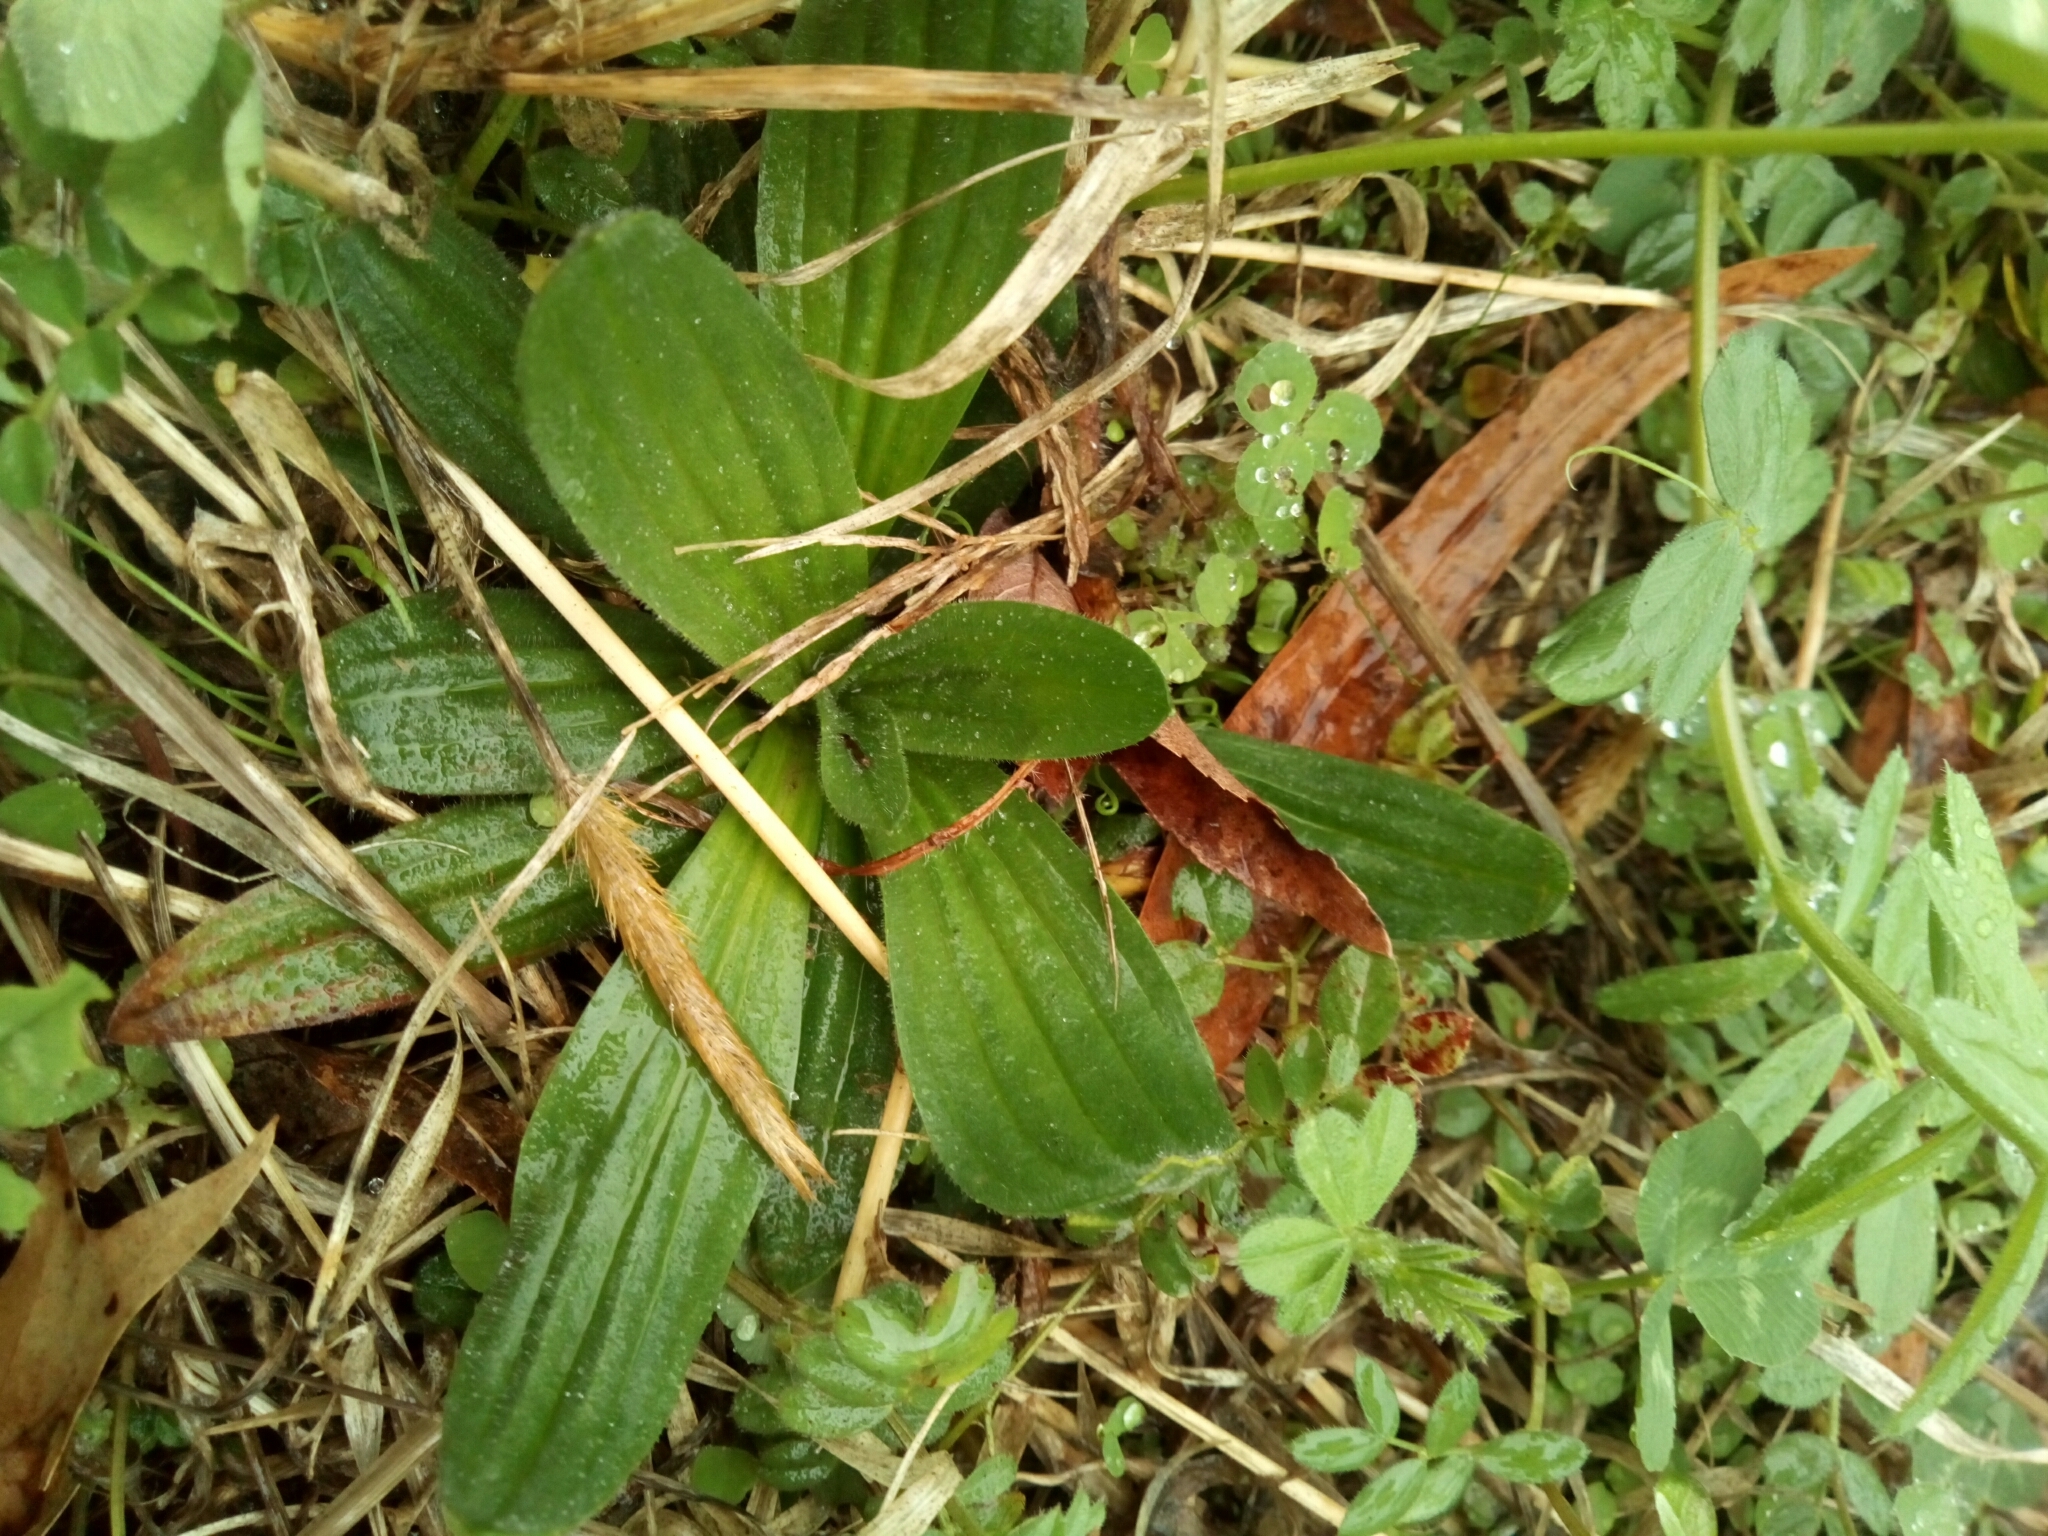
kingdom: Plantae
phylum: Tracheophyta
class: Magnoliopsida
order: Lamiales
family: Plantaginaceae
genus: Plantago
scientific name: Plantago lanceolata
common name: Ribwort plantain
